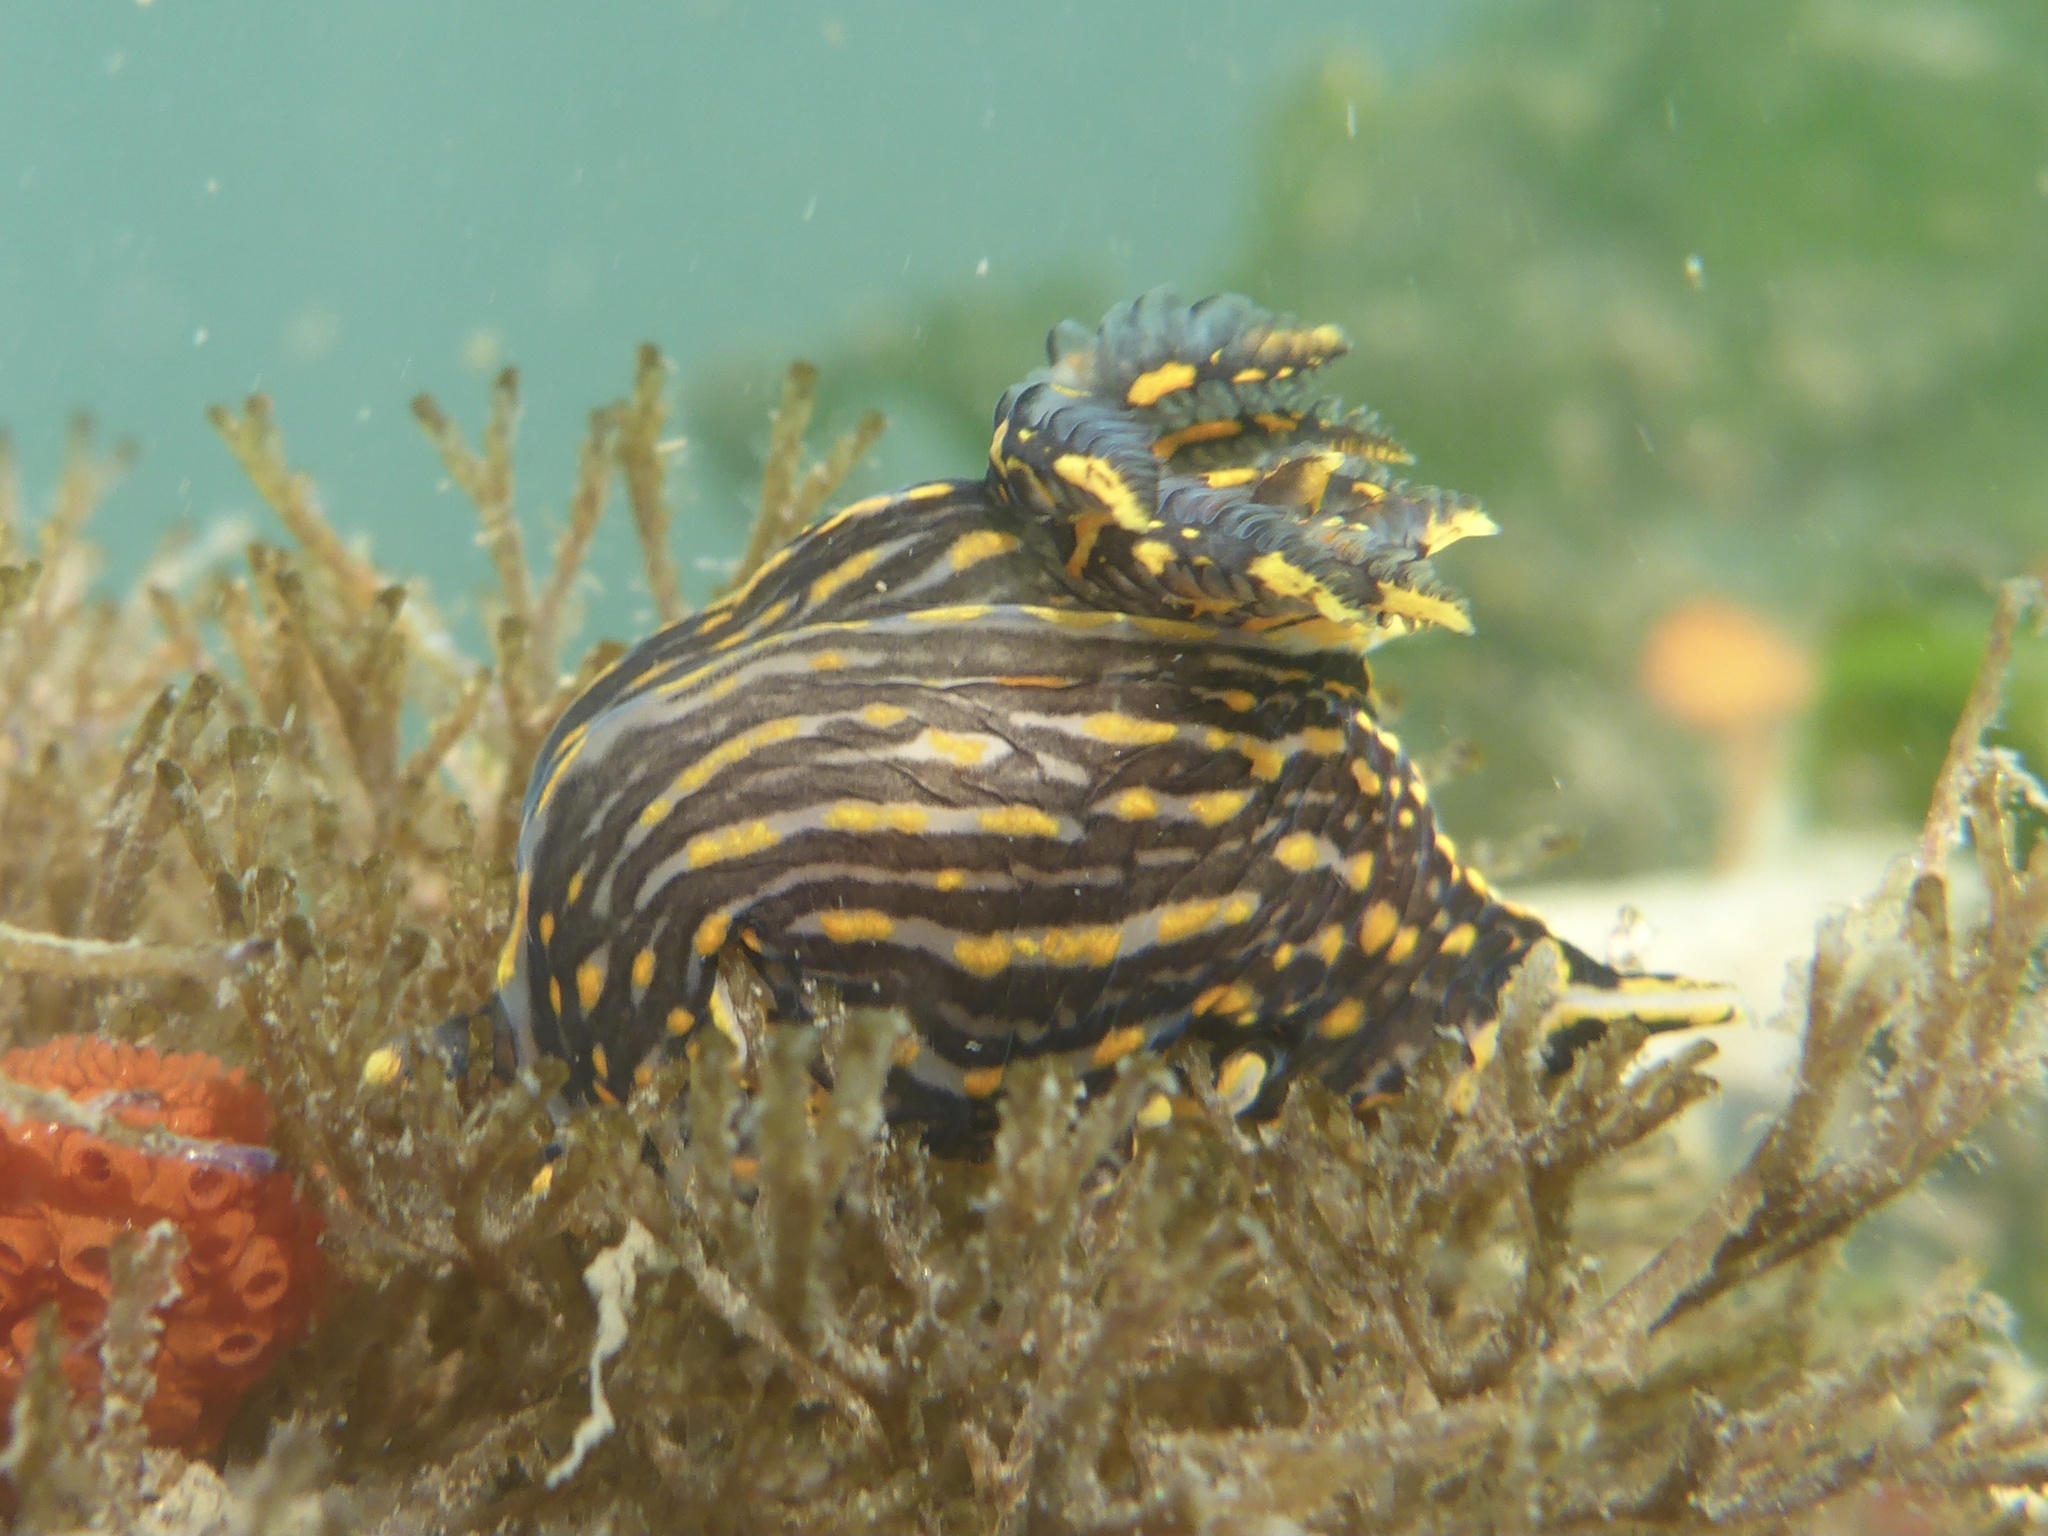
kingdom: Animalia
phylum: Mollusca
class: Gastropoda
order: Nudibranchia
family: Polyceridae
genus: Polycera
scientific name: Polycera atra
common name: Orange-spike polycera
